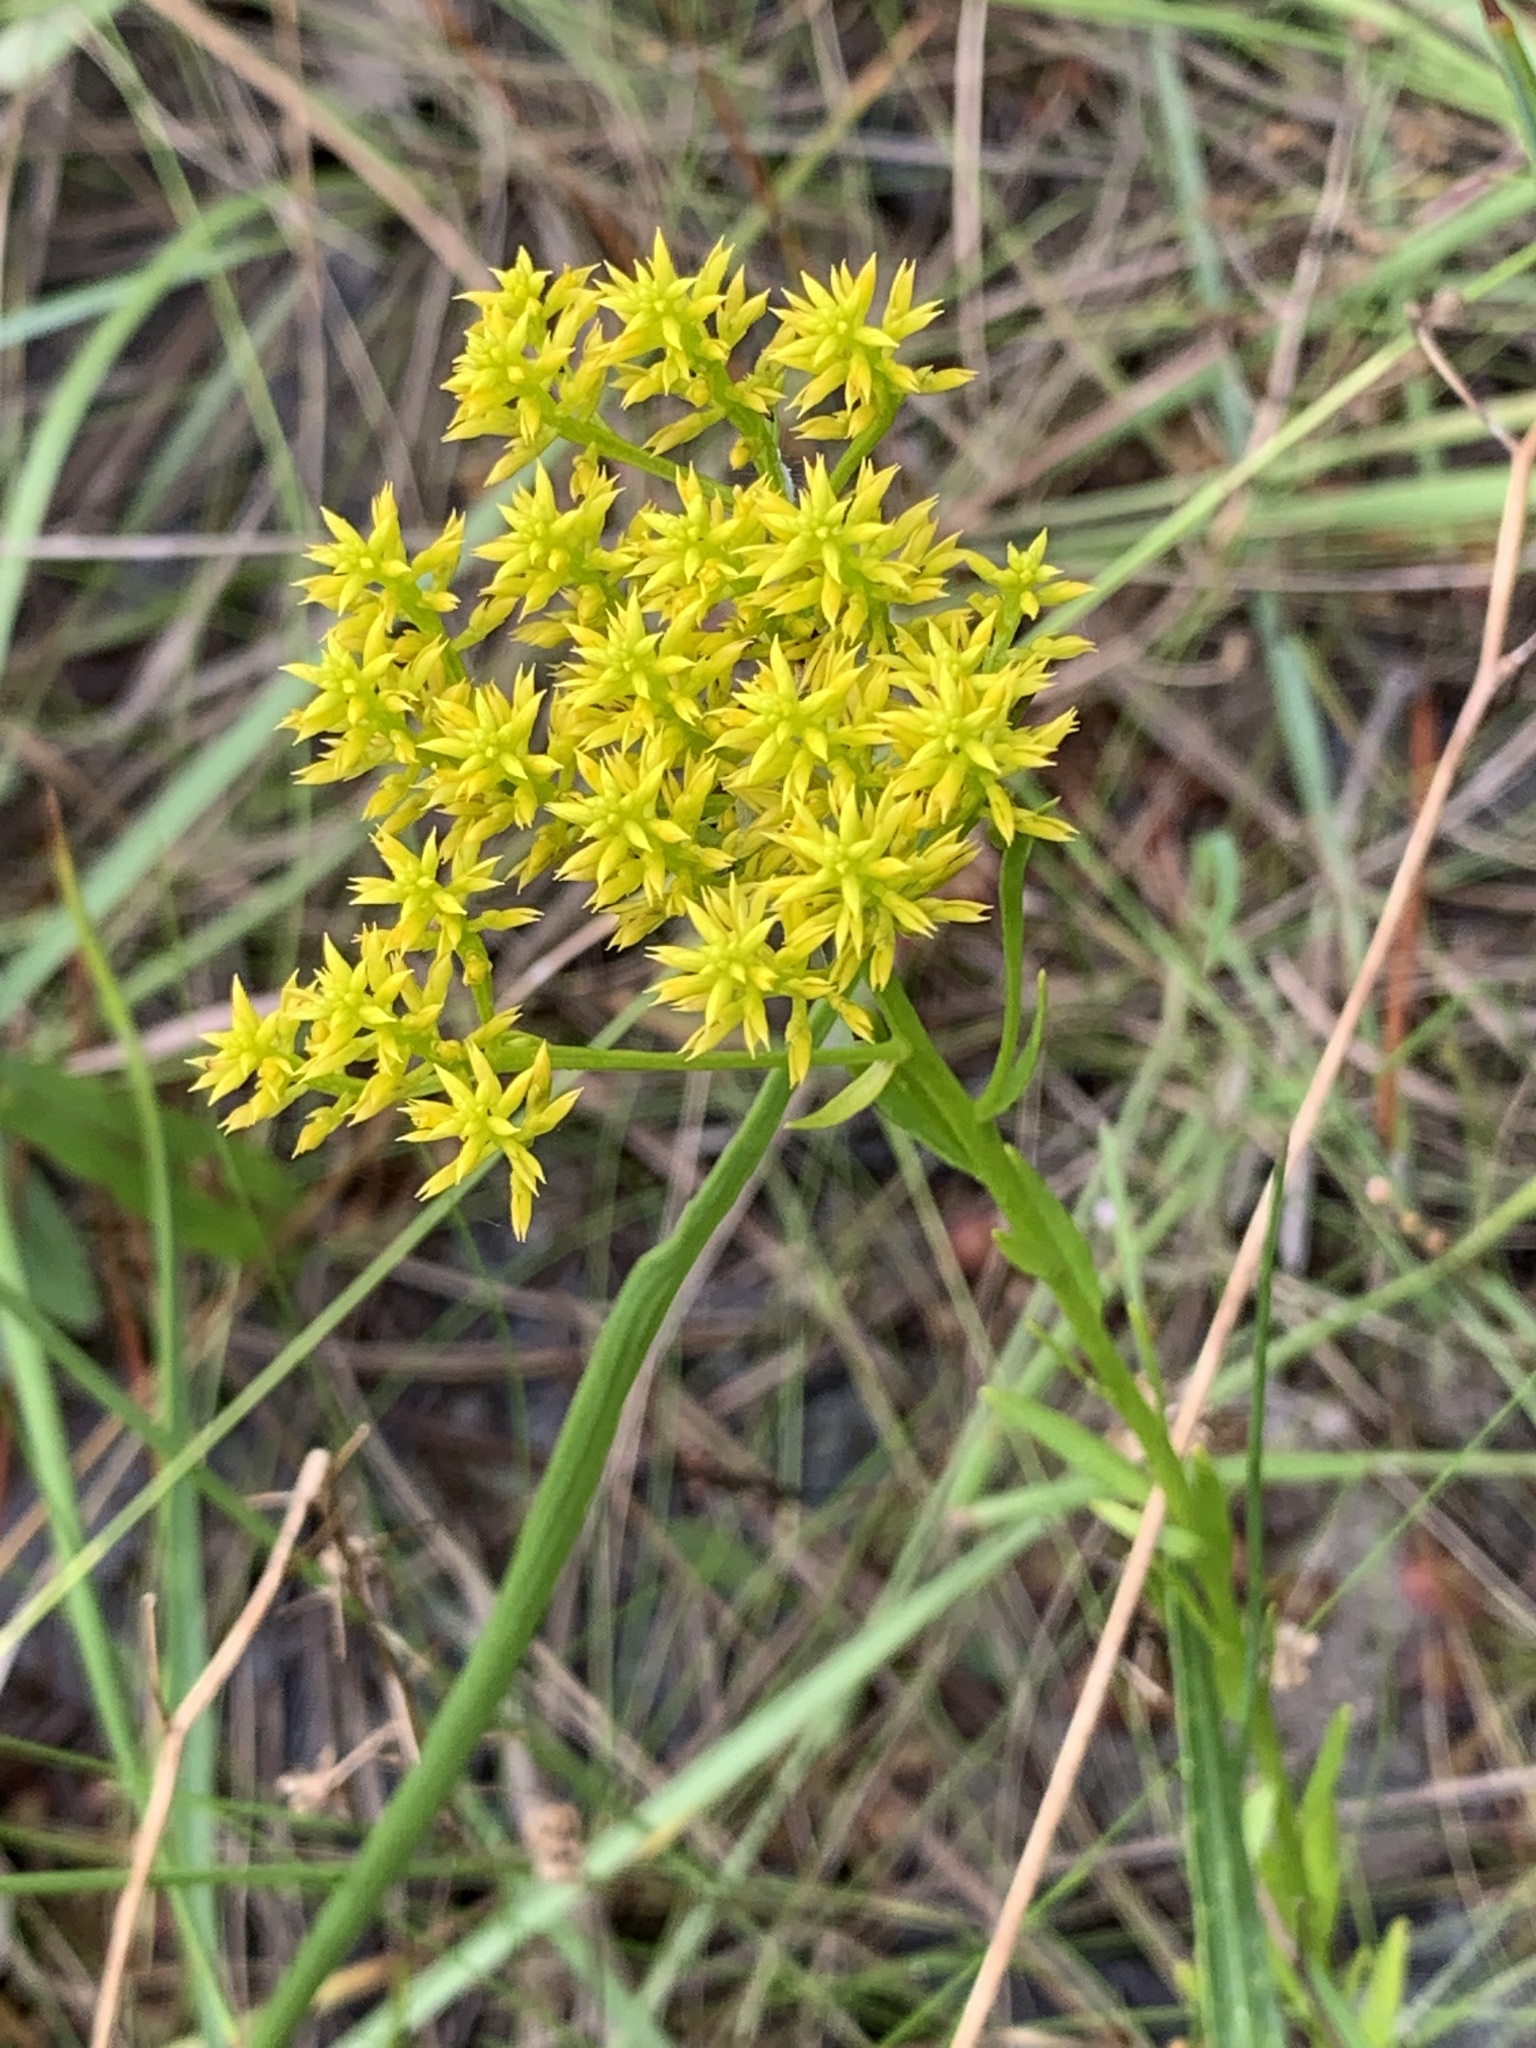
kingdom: Plantae
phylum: Tracheophyta
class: Magnoliopsida
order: Fabales
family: Polygalaceae
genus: Polygala
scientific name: Polygala ramosa
